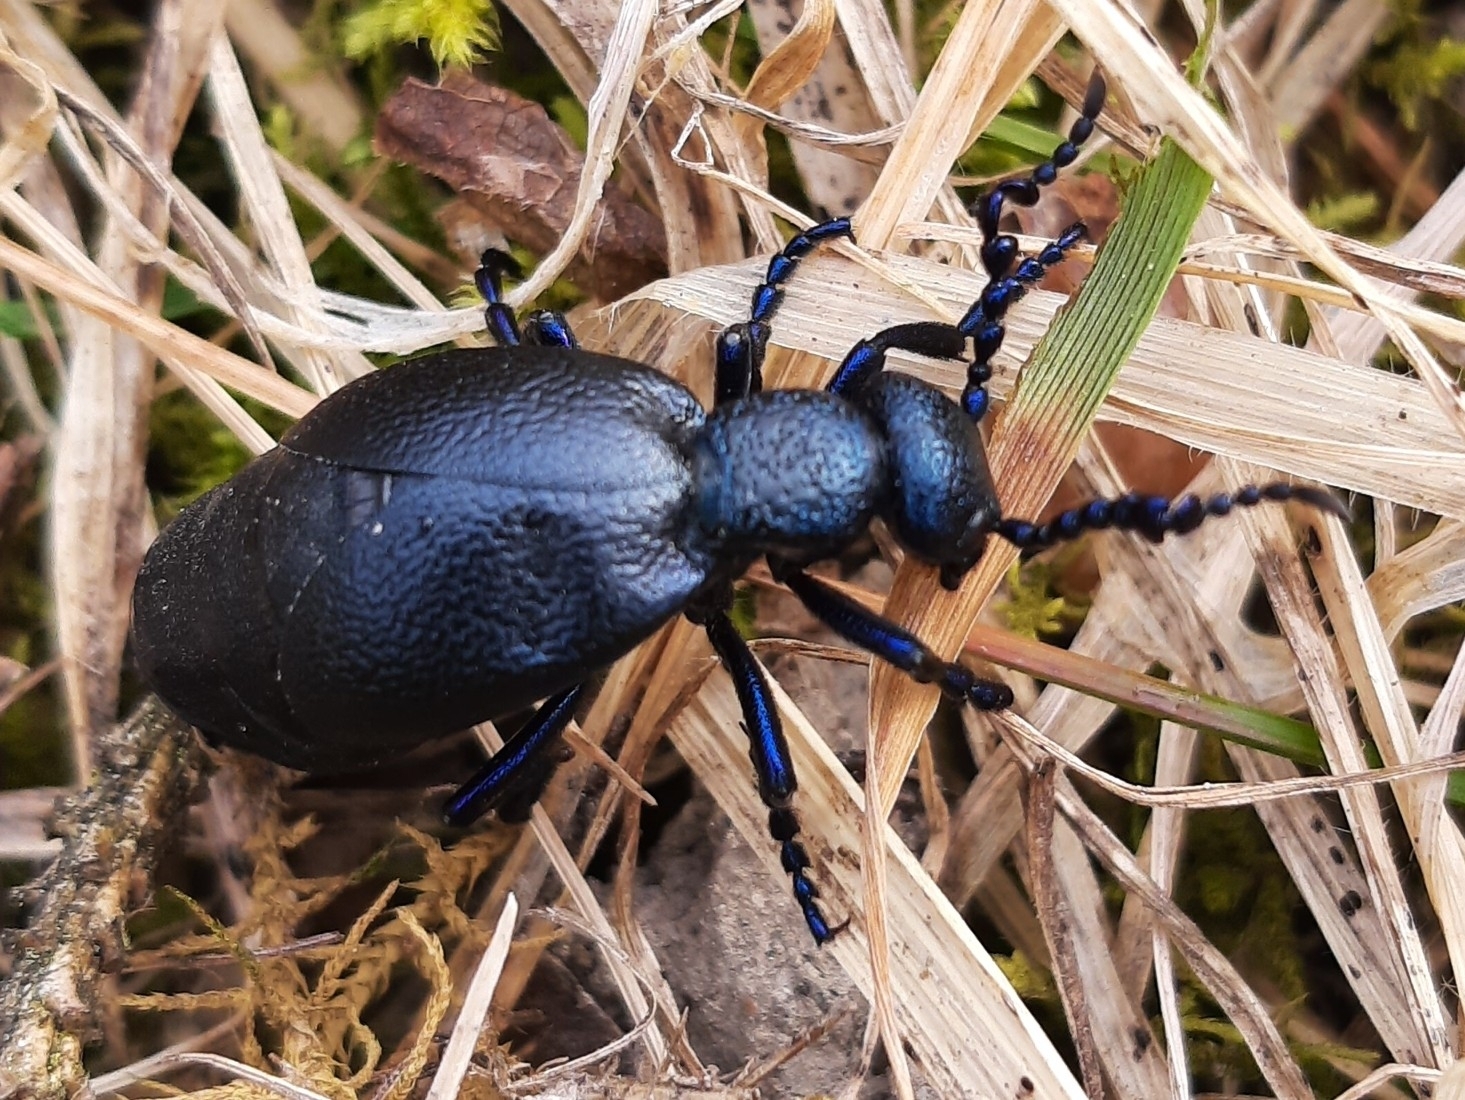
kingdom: Animalia
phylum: Arthropoda
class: Insecta
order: Coleoptera
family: Meloidae
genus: Meloe
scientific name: Meloe proscarabaeus
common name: Black oil-beetle
